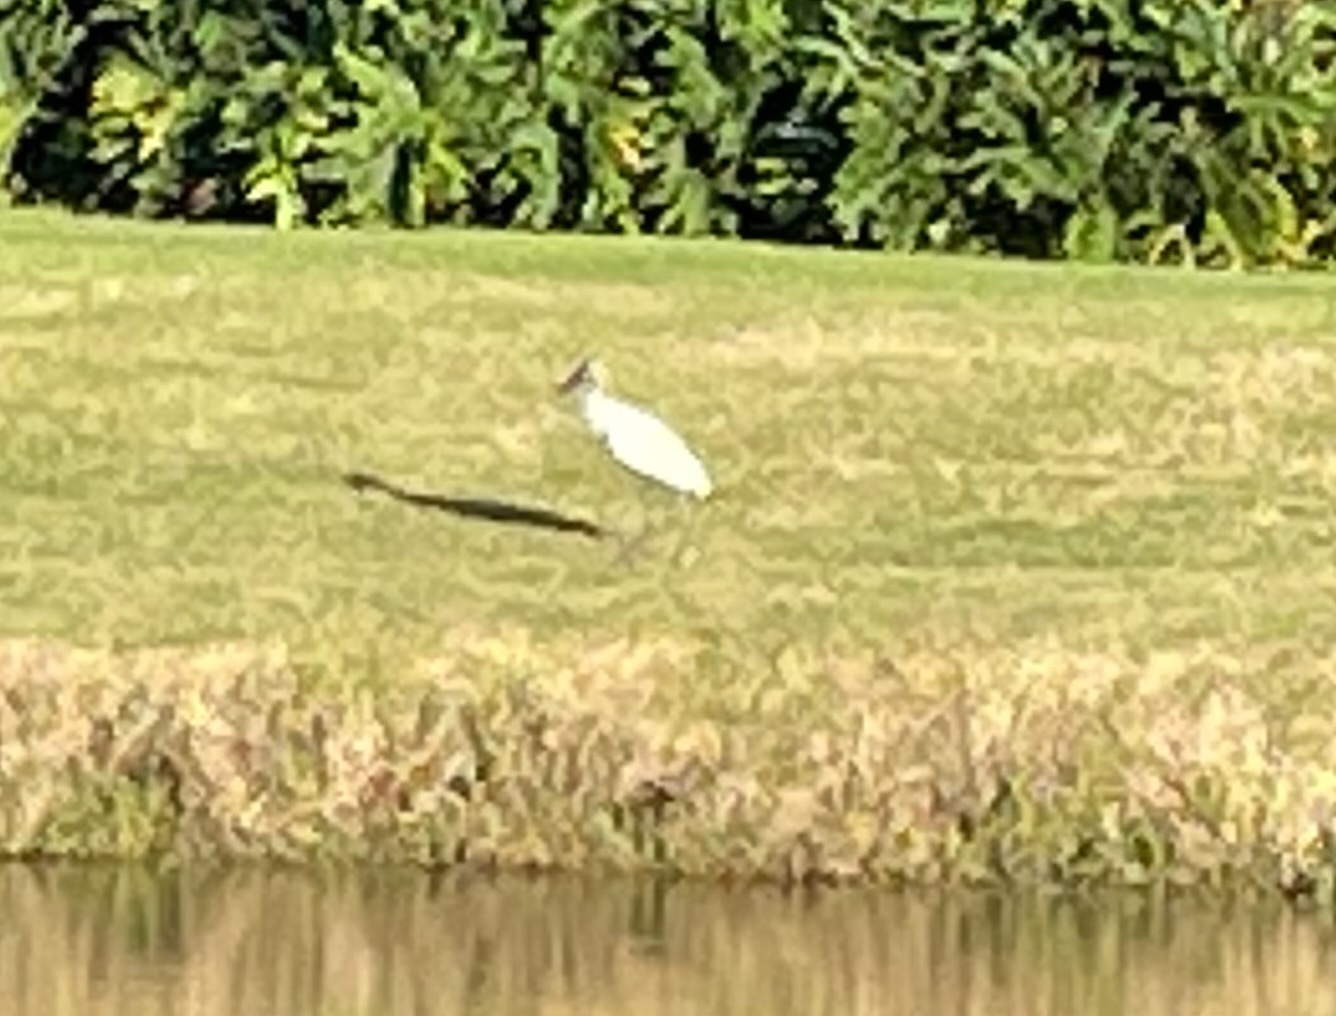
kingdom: Animalia
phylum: Chordata
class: Aves
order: Ciconiiformes
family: Ciconiidae
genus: Mycteria
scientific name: Mycteria americana
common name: Wood stork
